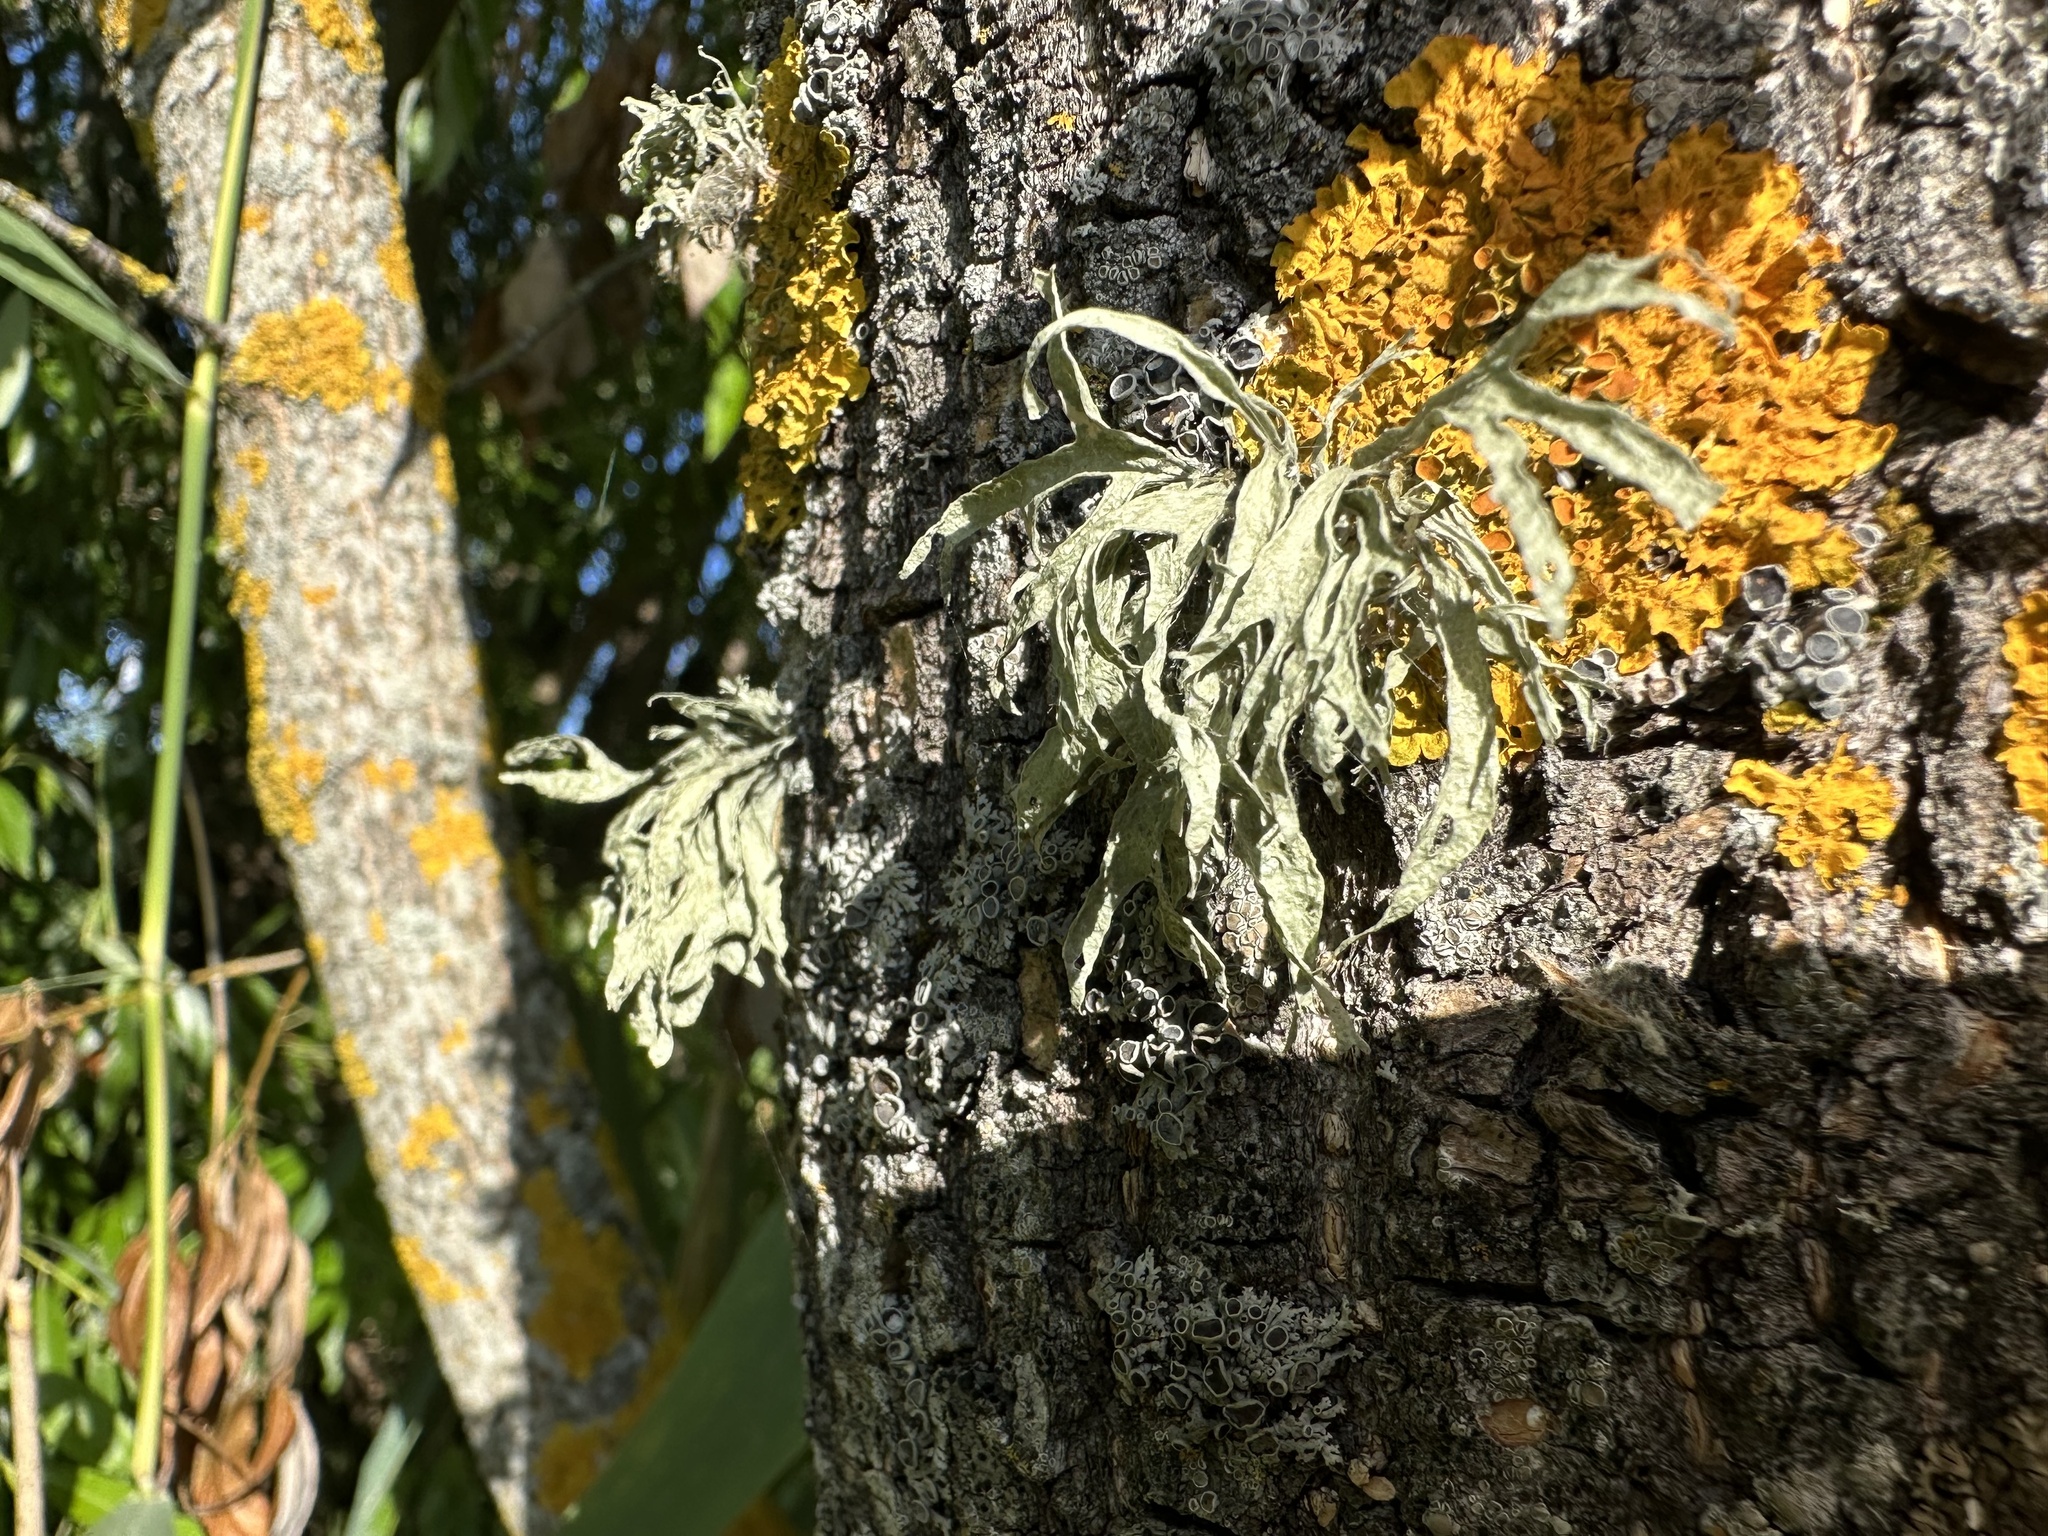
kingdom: Fungi
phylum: Ascomycota
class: Lecanoromycetes
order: Lecanorales
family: Ramalinaceae
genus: Ramalina
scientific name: Ramalina fraxinea
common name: Cartilage lichen
